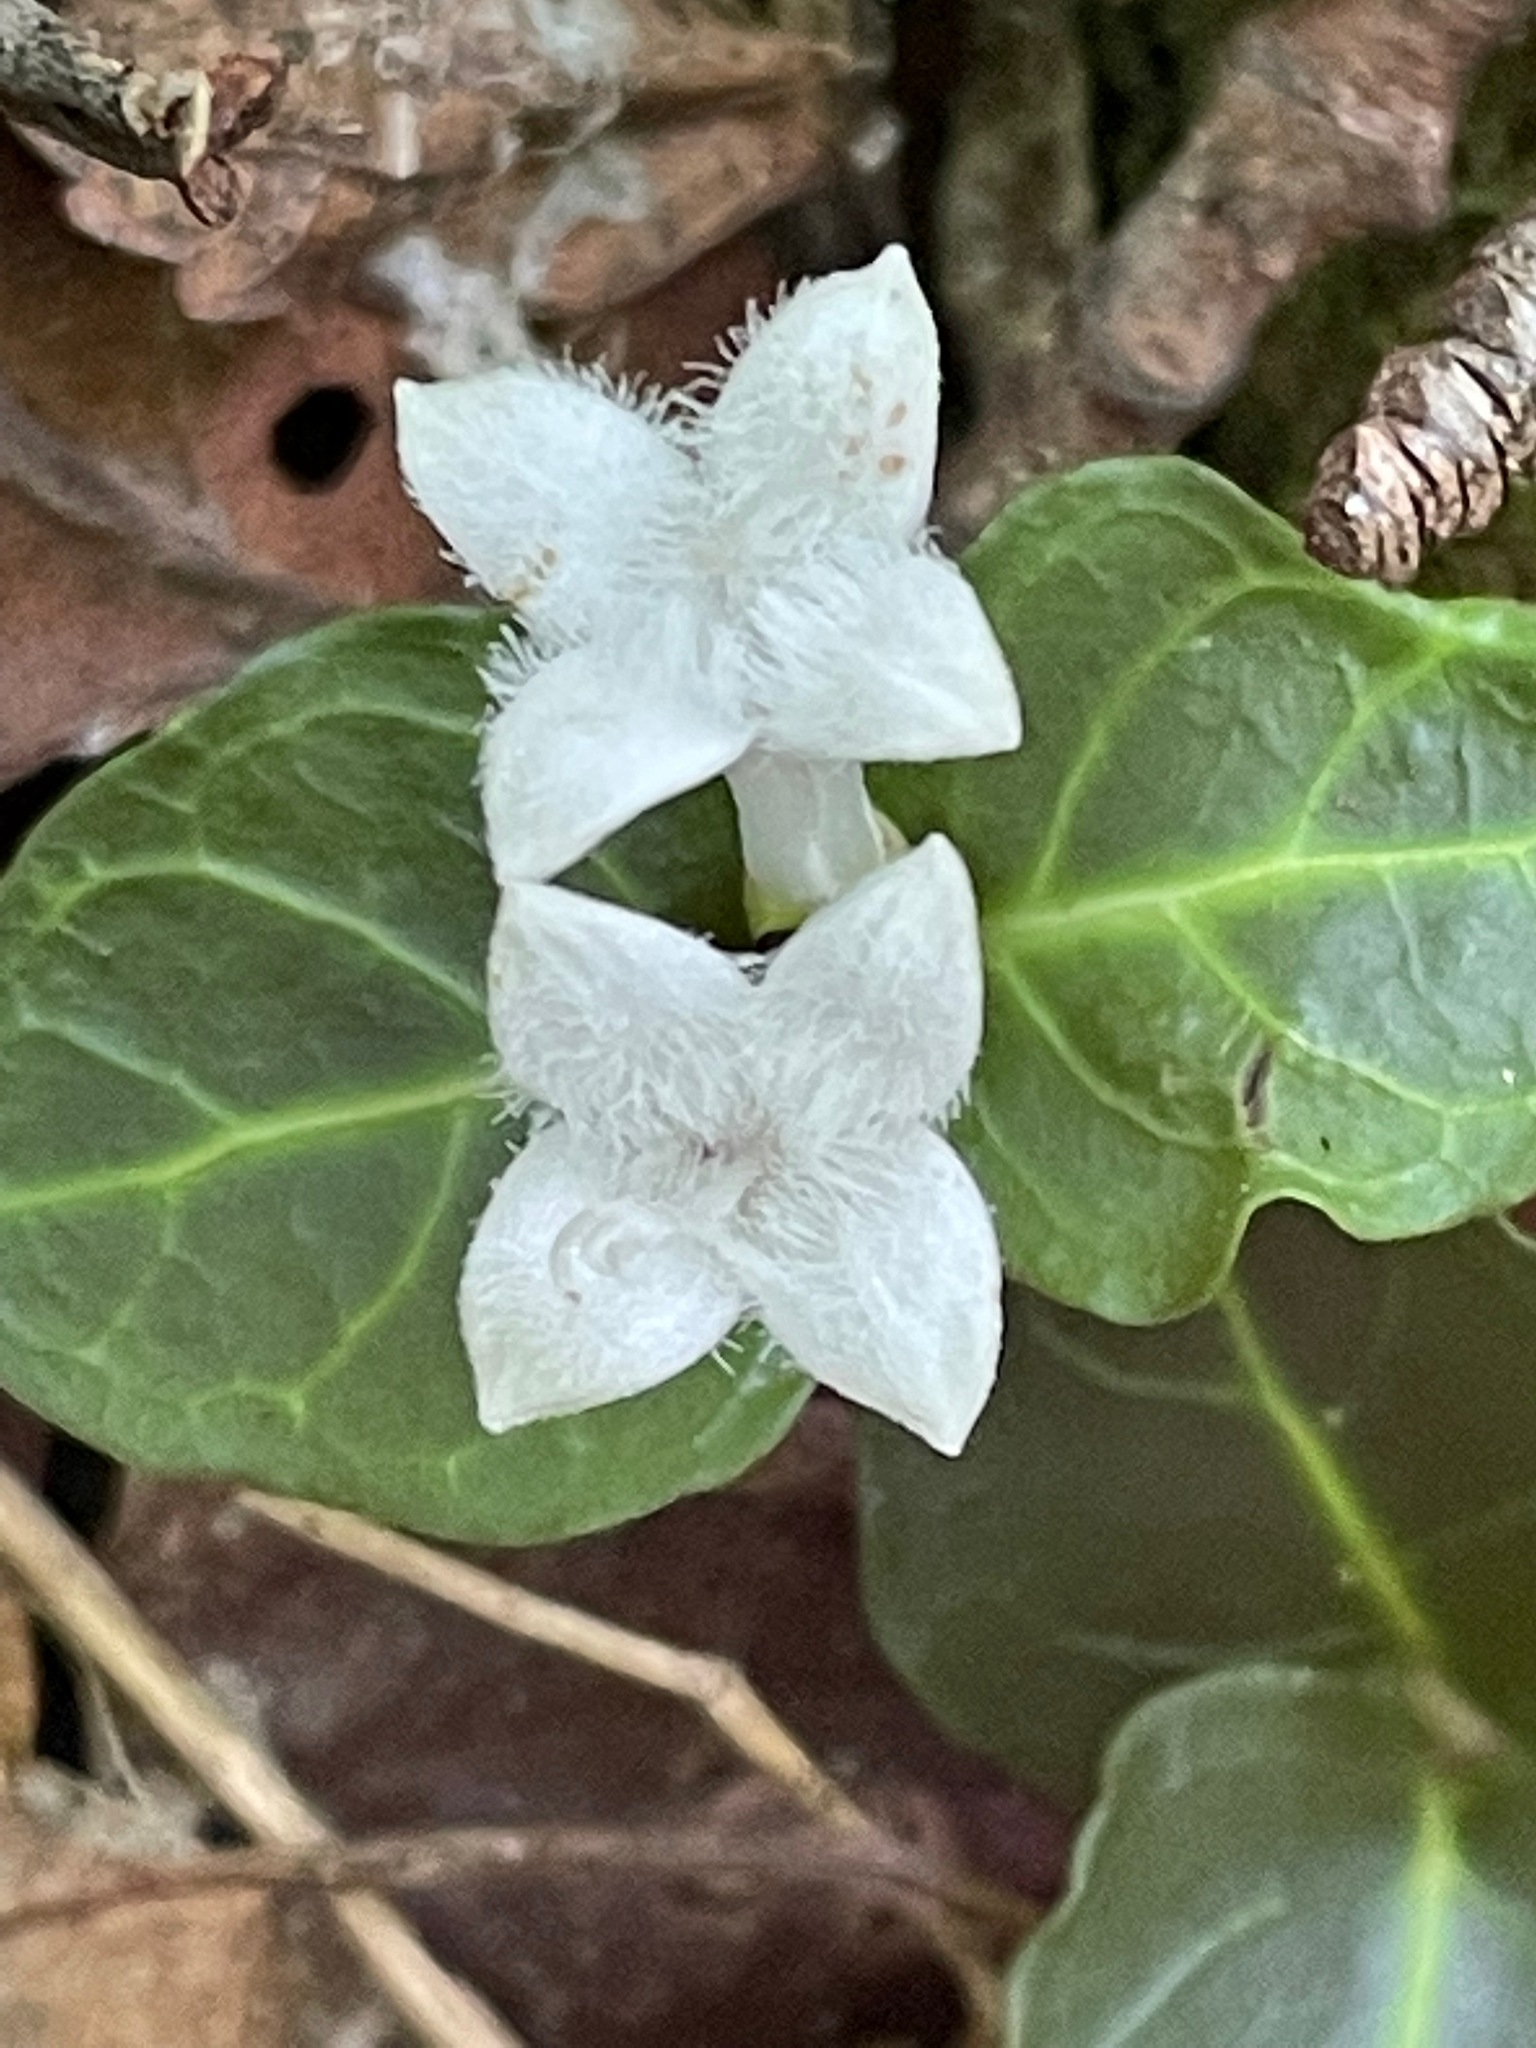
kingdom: Plantae
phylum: Tracheophyta
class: Magnoliopsida
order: Gentianales
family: Rubiaceae
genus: Mitchella
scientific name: Mitchella repens
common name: Partridge-berry
